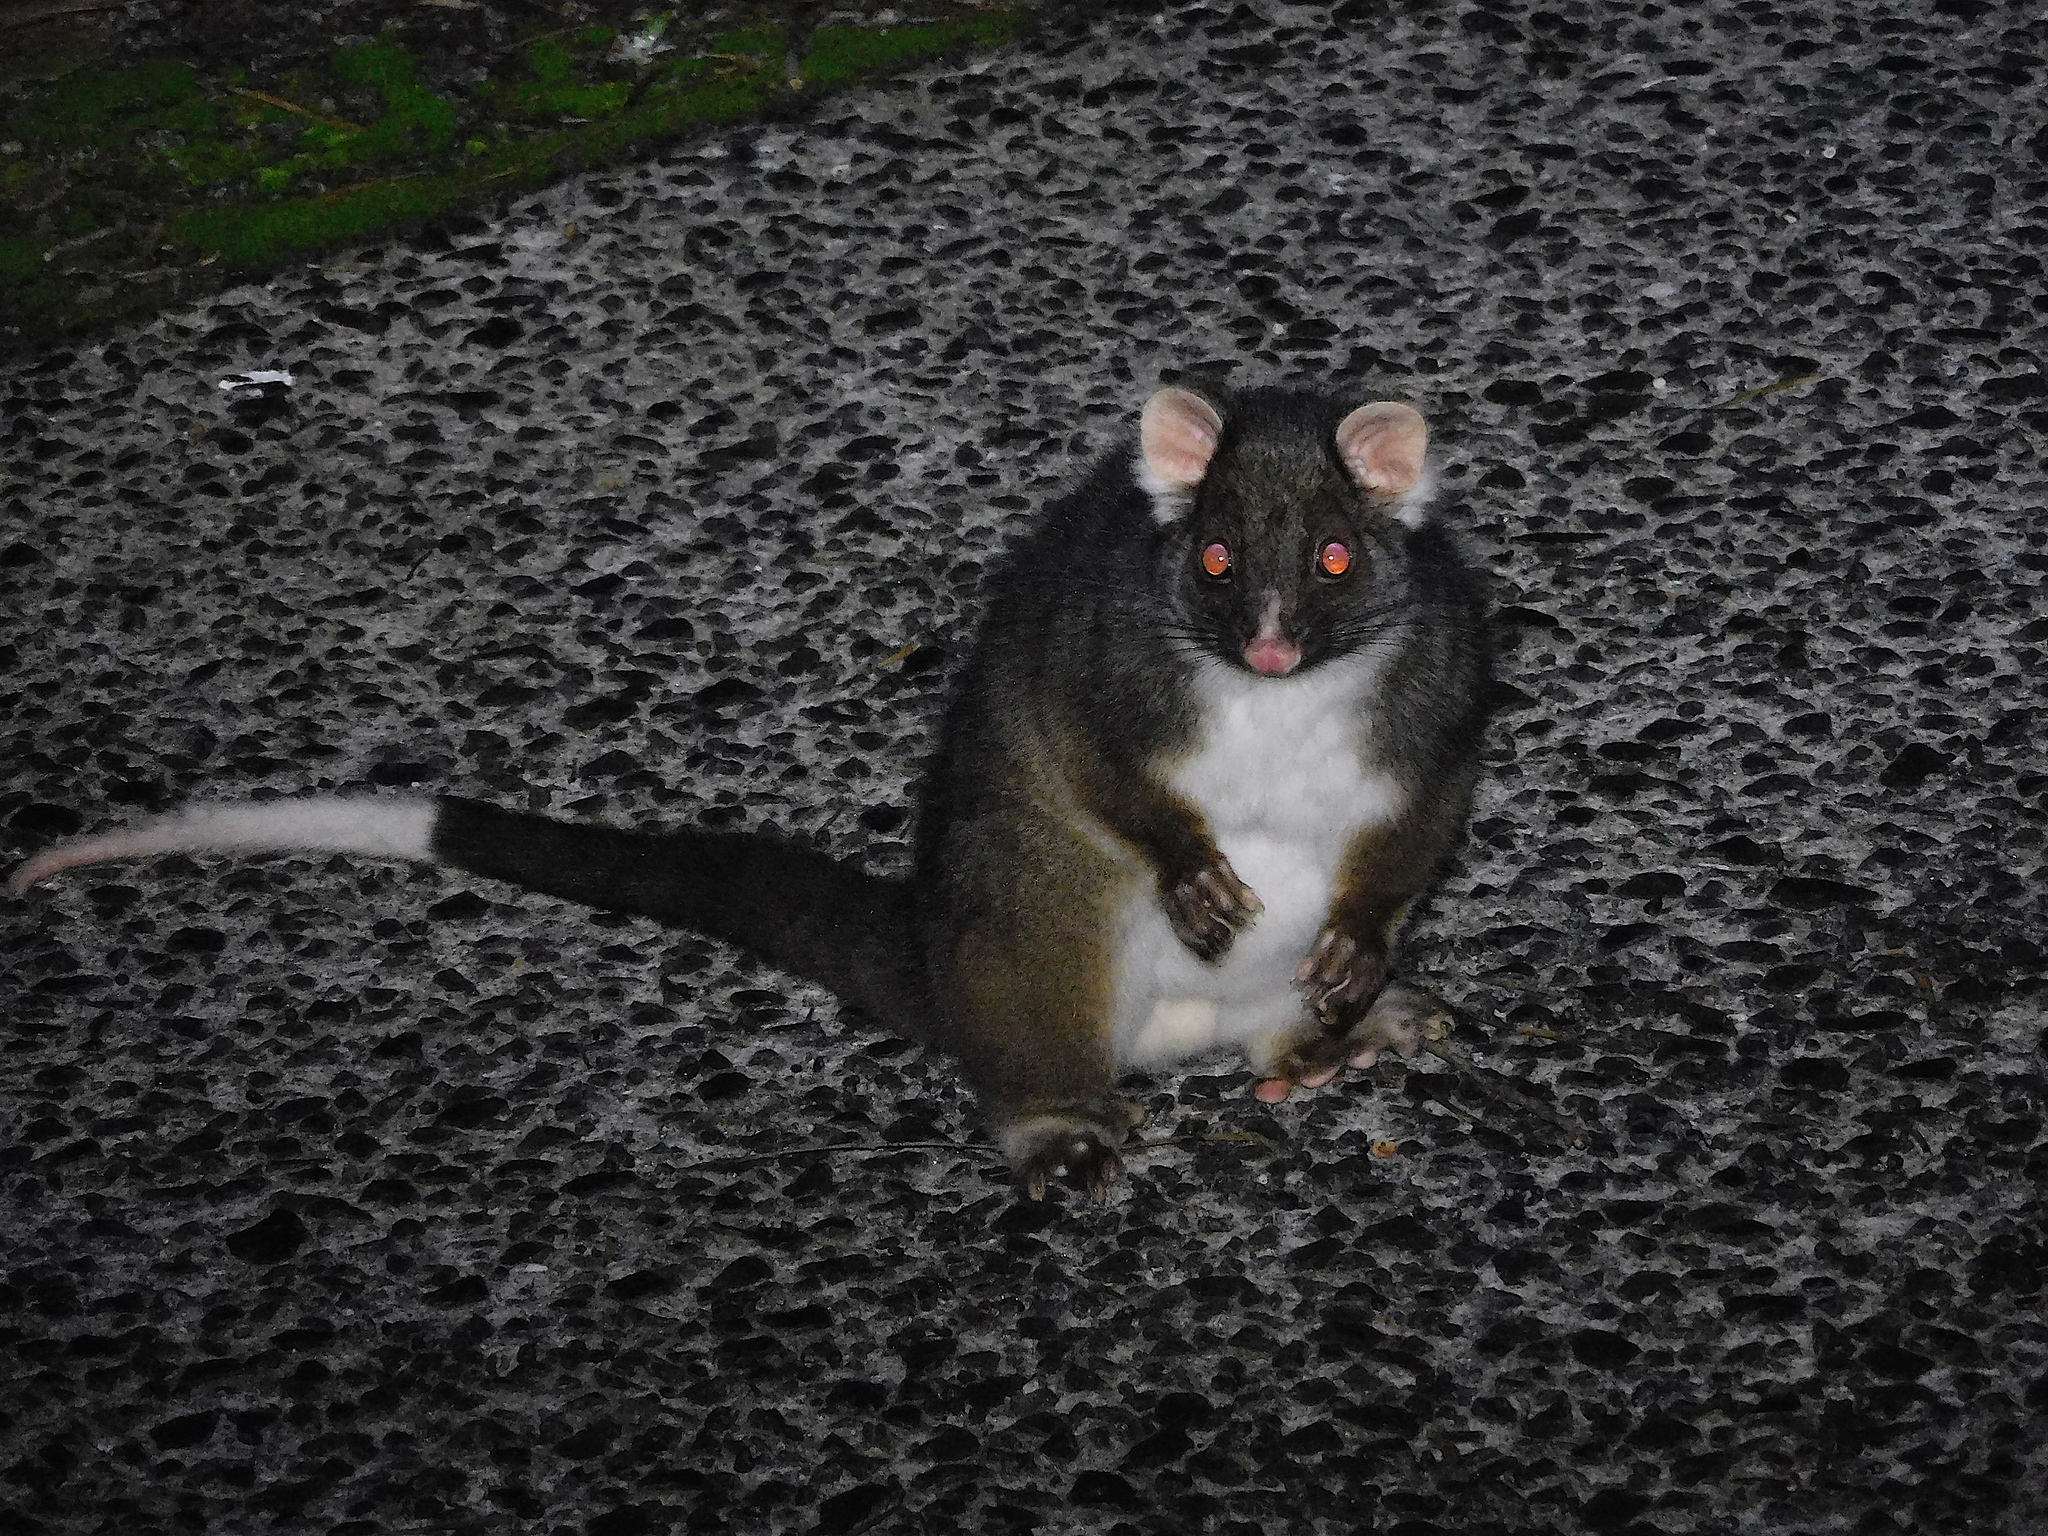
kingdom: Animalia
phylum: Chordata
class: Mammalia
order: Diprotodontia
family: Pseudocheiridae
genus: Pseudocheirus
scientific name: Pseudocheirus peregrinus
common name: Common ringtail possum
